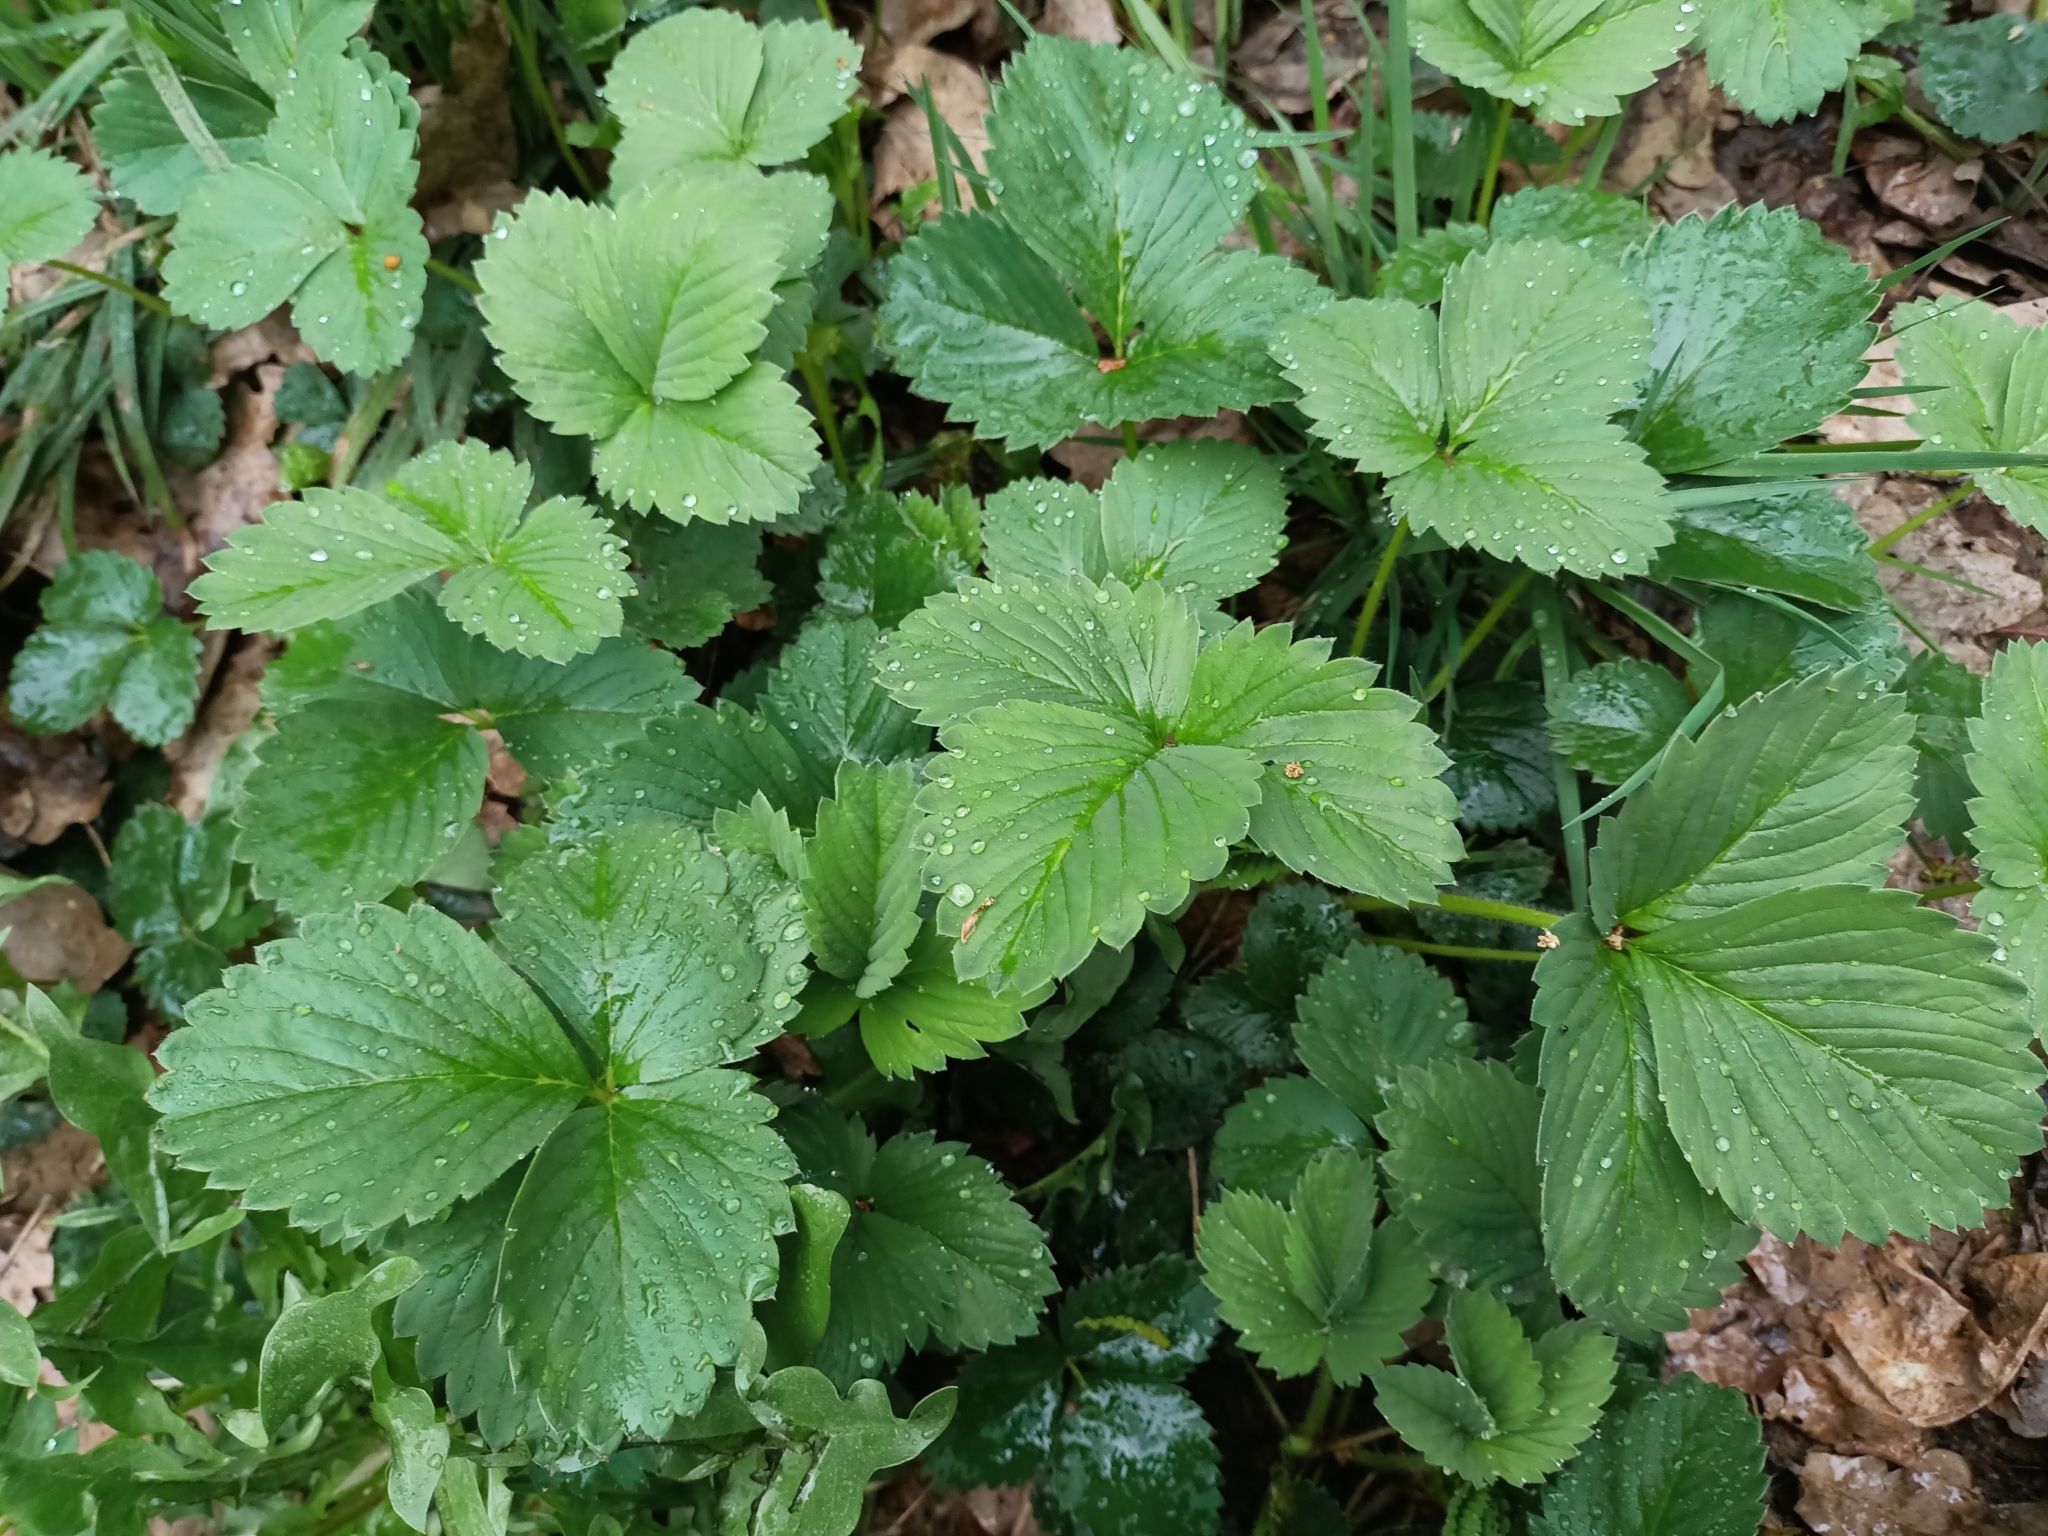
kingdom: Plantae
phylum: Tracheophyta
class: Magnoliopsida
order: Rosales
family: Rosaceae
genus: Fragaria
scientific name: Fragaria ananassa
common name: Garden strawberry
